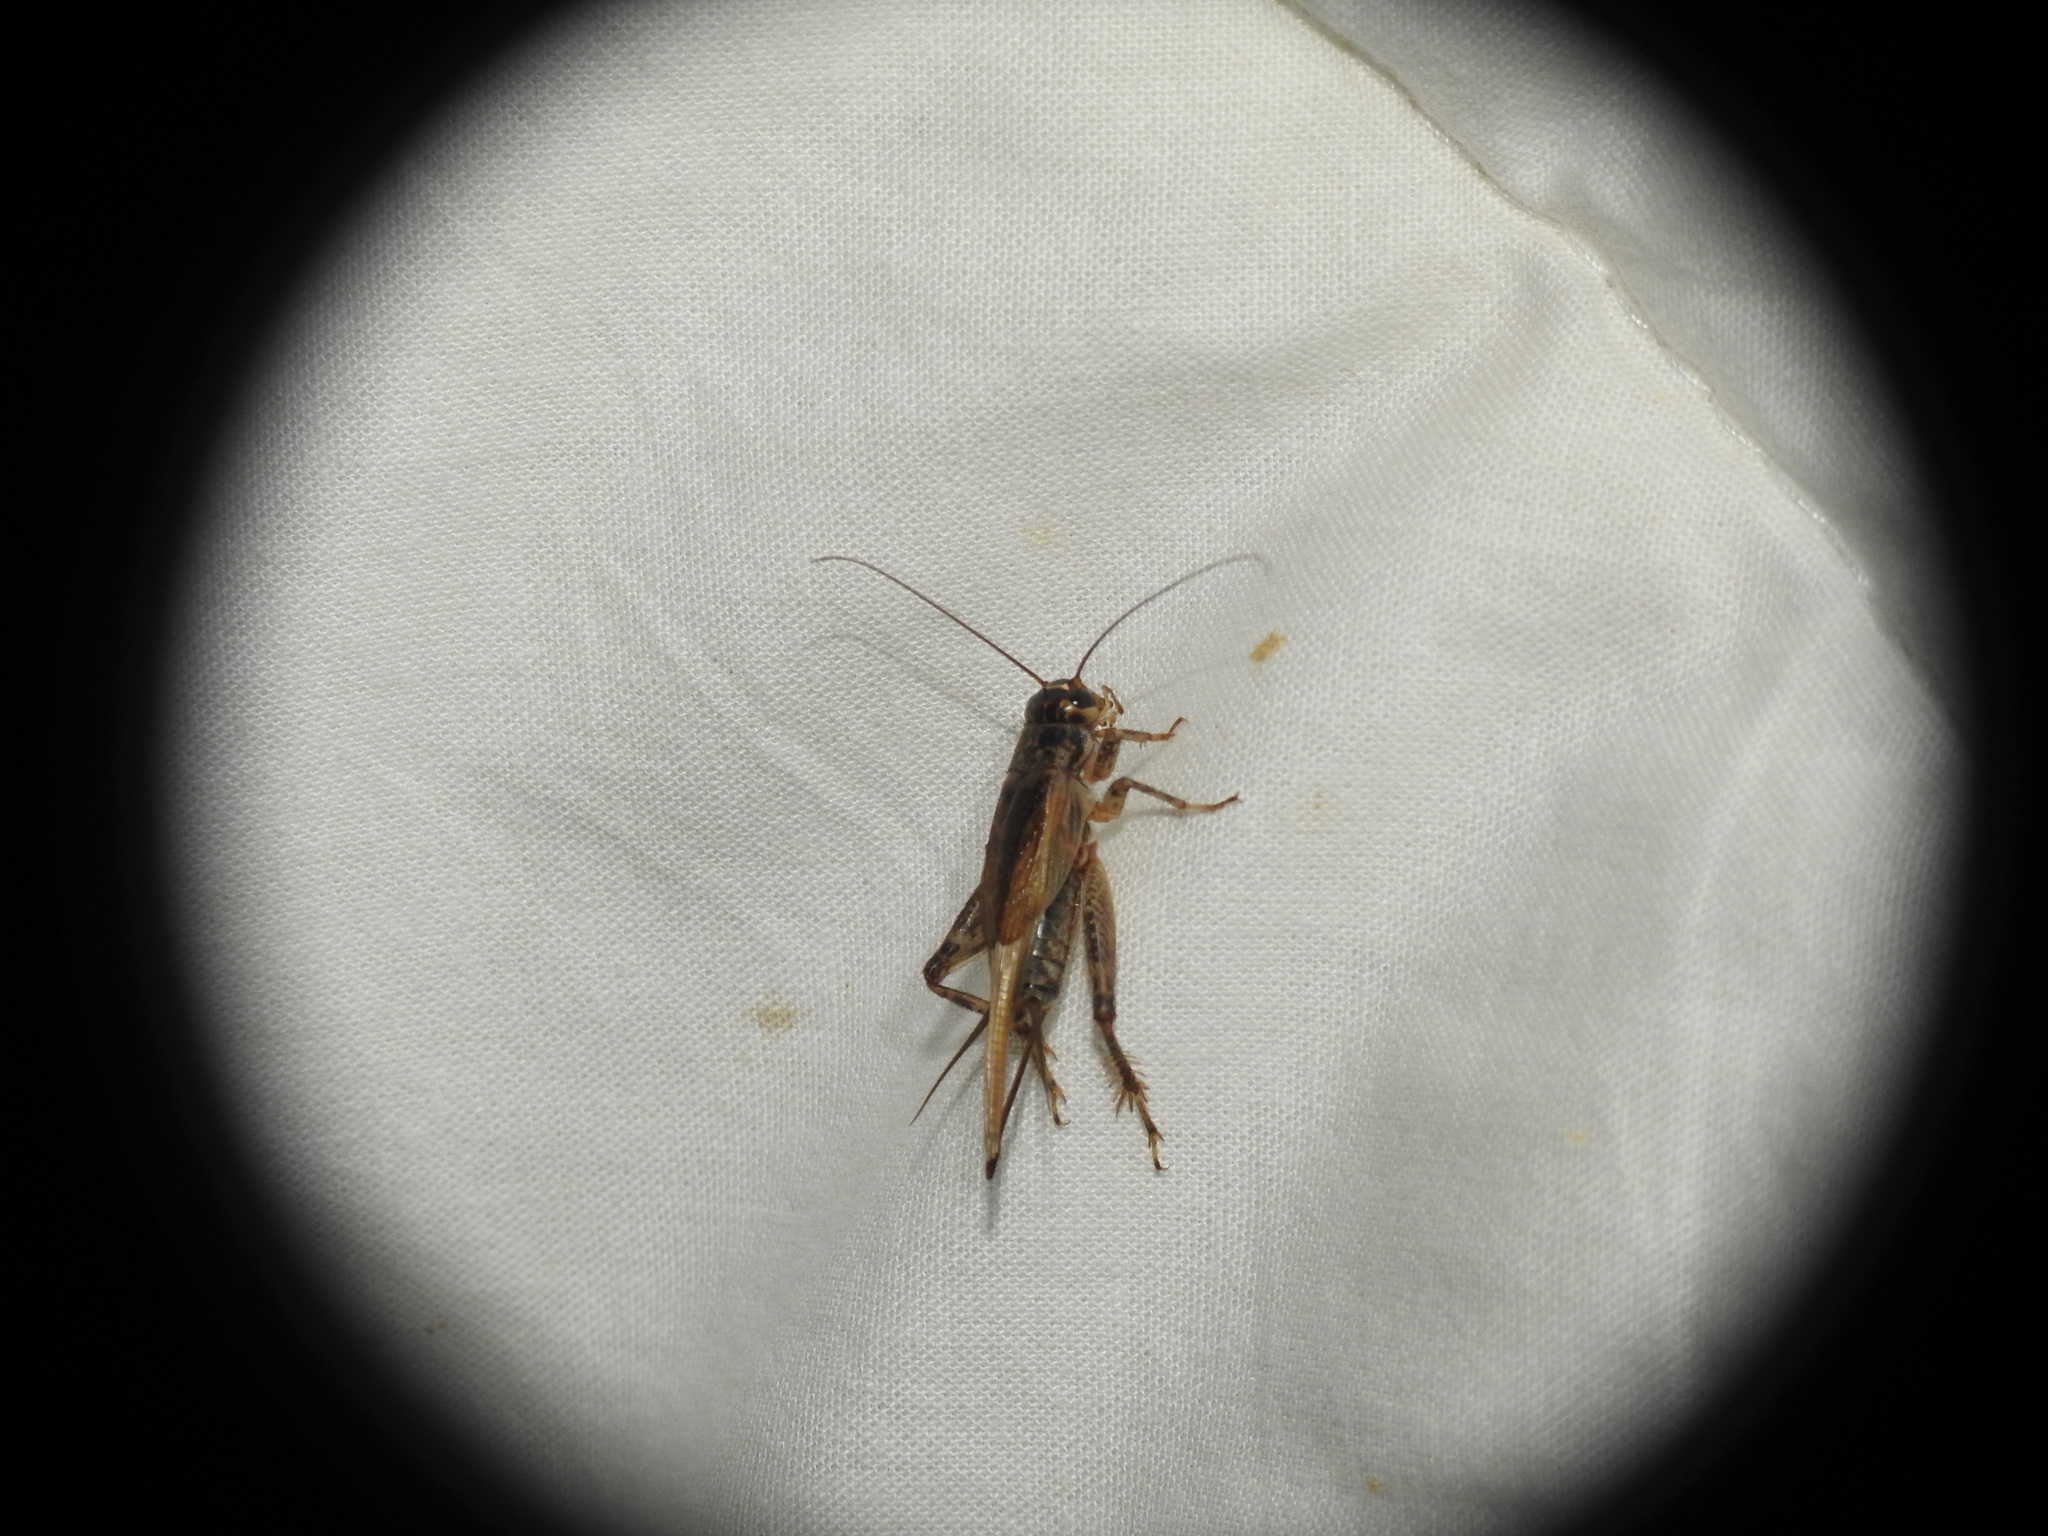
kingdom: Animalia
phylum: Arthropoda
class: Insecta
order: Orthoptera
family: Gryllidae
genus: Eumodicogryllus
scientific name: Eumodicogryllus bordigalensis
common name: Bordeaux cricket
